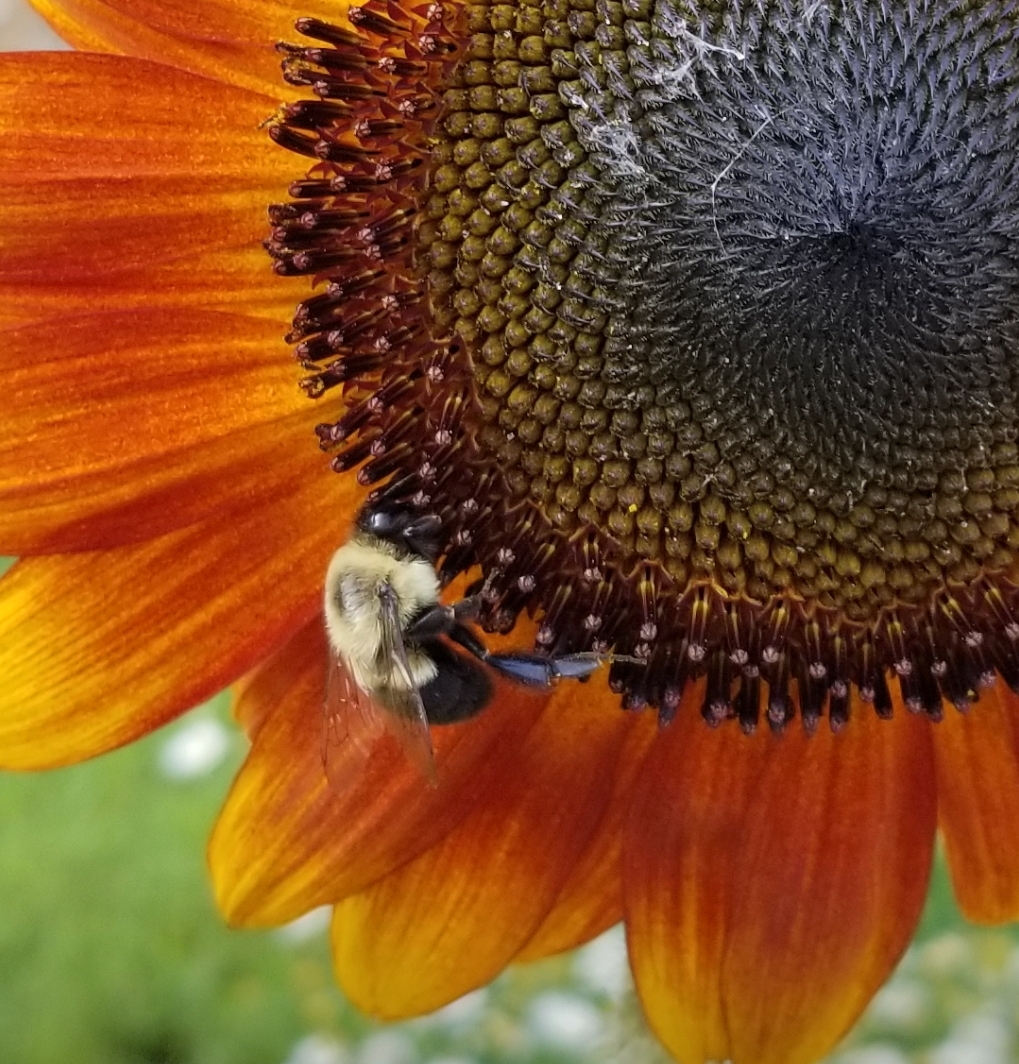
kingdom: Animalia
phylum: Arthropoda
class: Insecta
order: Hymenoptera
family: Apidae
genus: Bombus
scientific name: Bombus impatiens
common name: Common eastern bumble bee
